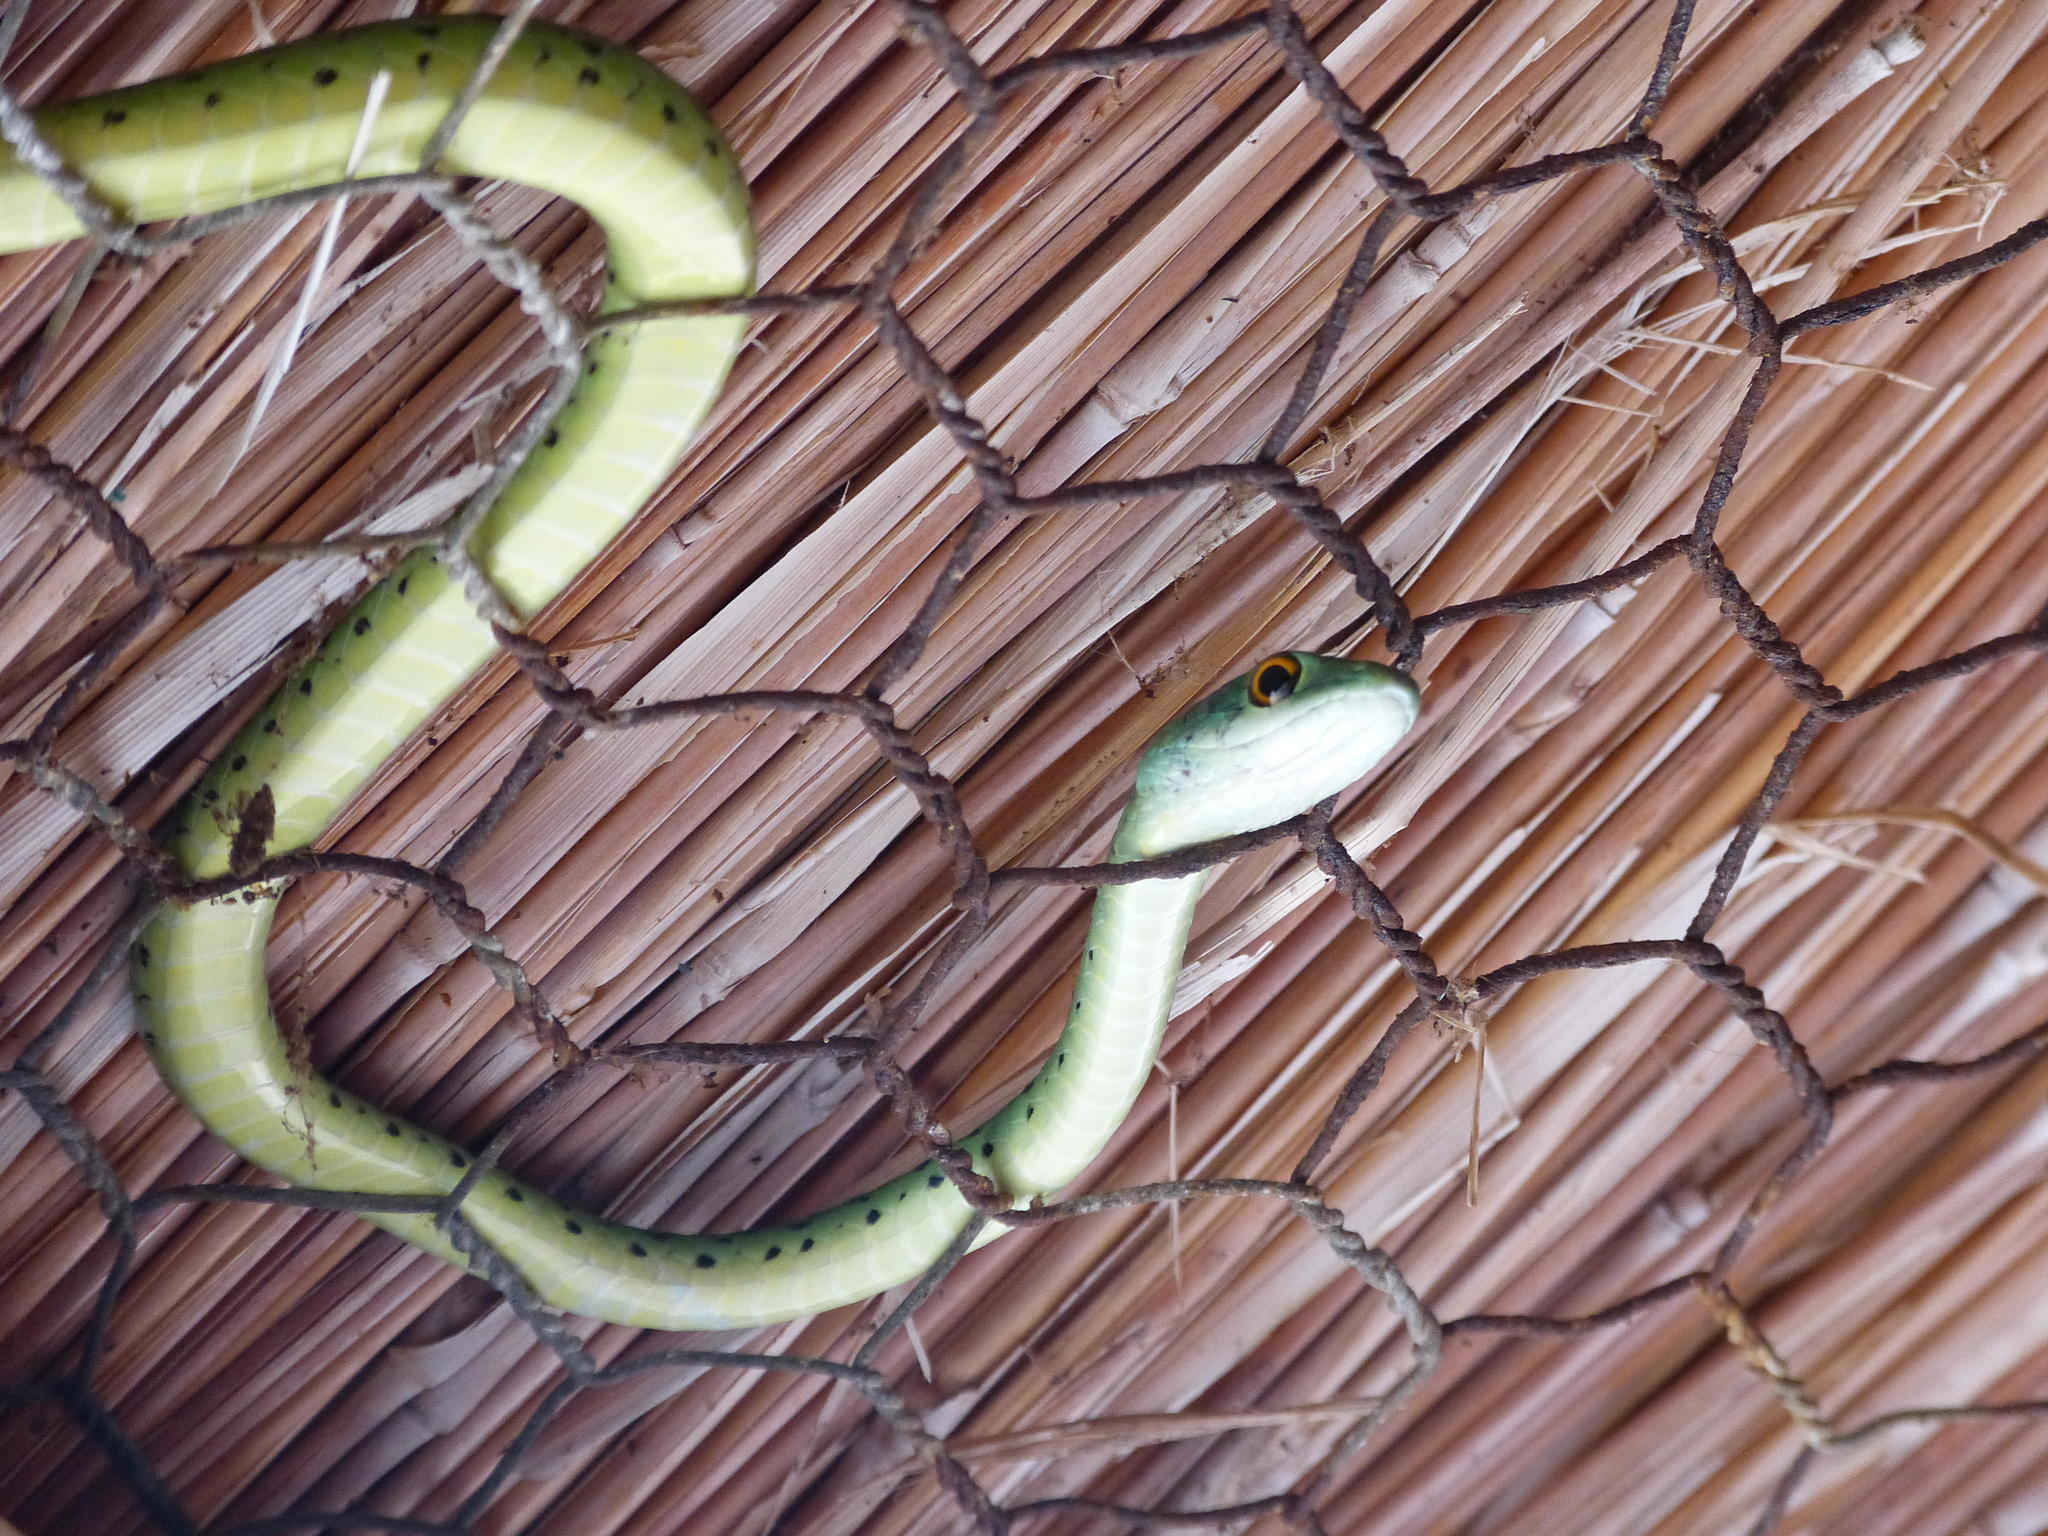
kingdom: Animalia
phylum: Chordata
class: Squamata
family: Colubridae
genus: Philothamnus
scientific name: Philothamnus semivariegatus
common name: Spotted bush snake
